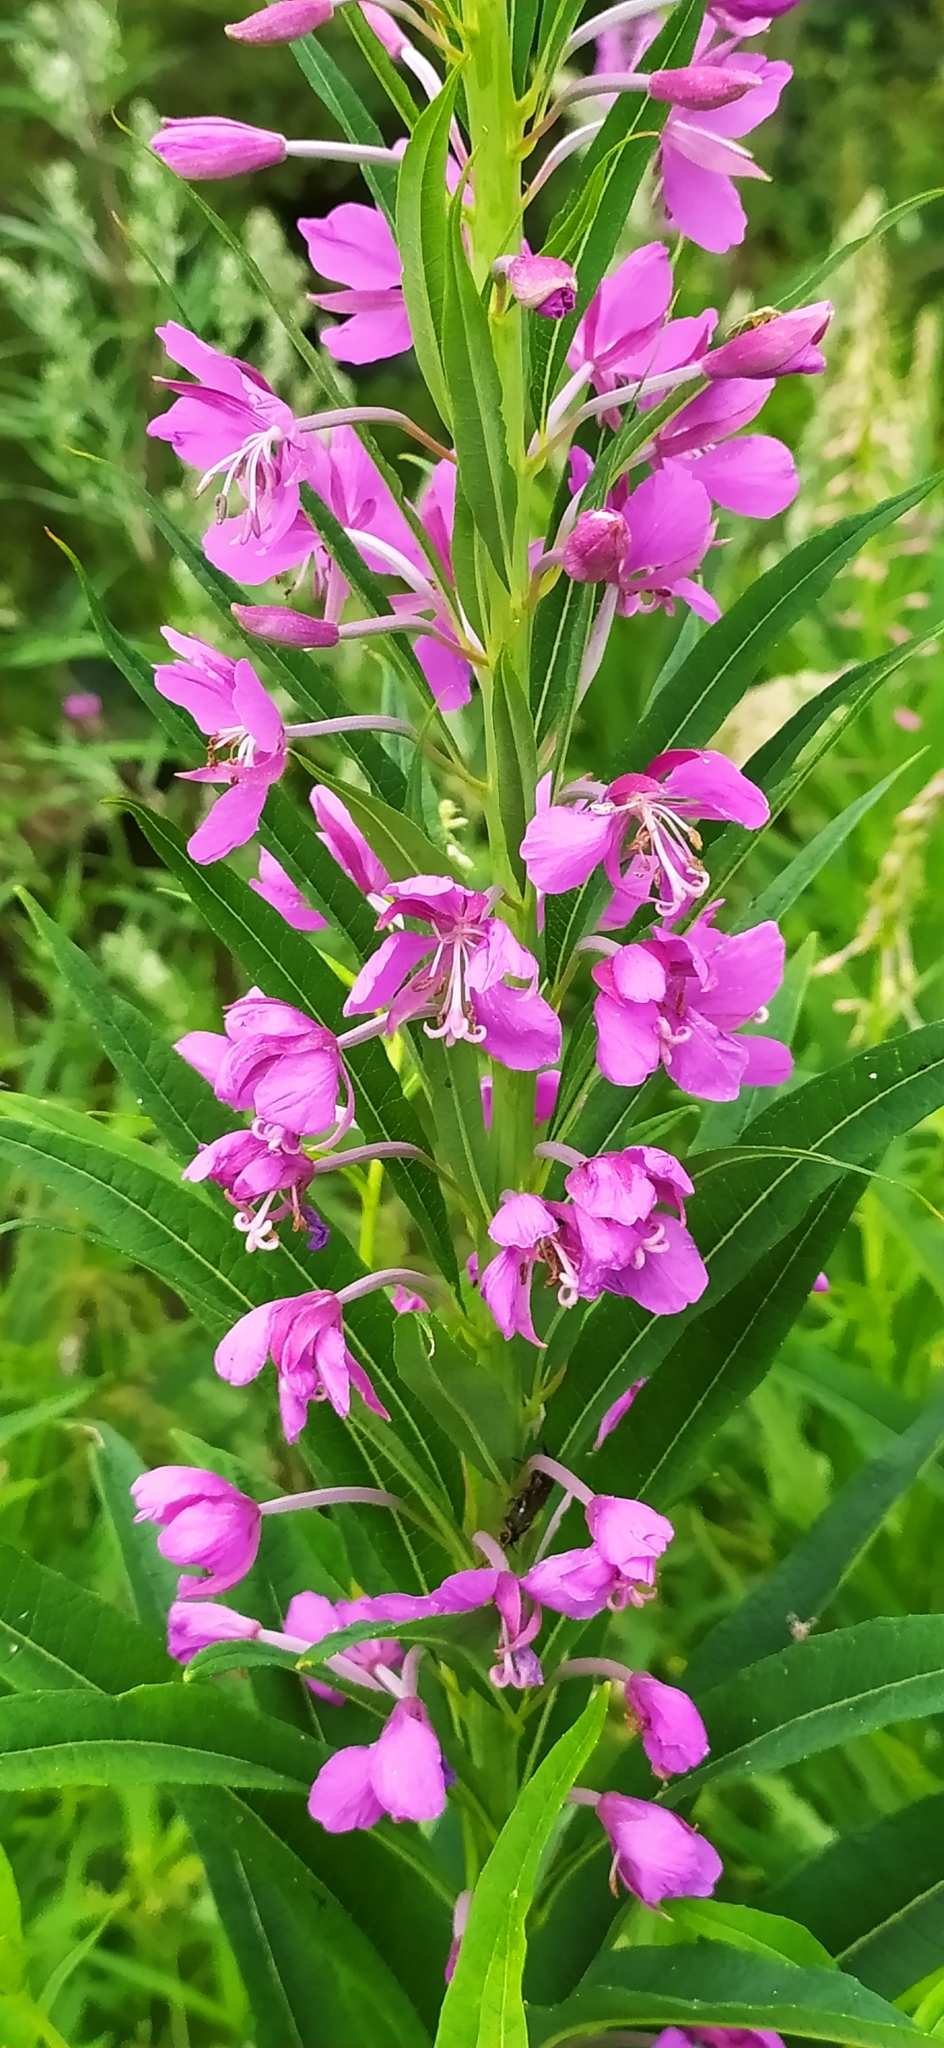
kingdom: Plantae
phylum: Tracheophyta
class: Magnoliopsida
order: Myrtales
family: Onagraceae
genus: Chamaenerion
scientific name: Chamaenerion angustifolium
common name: Fireweed
